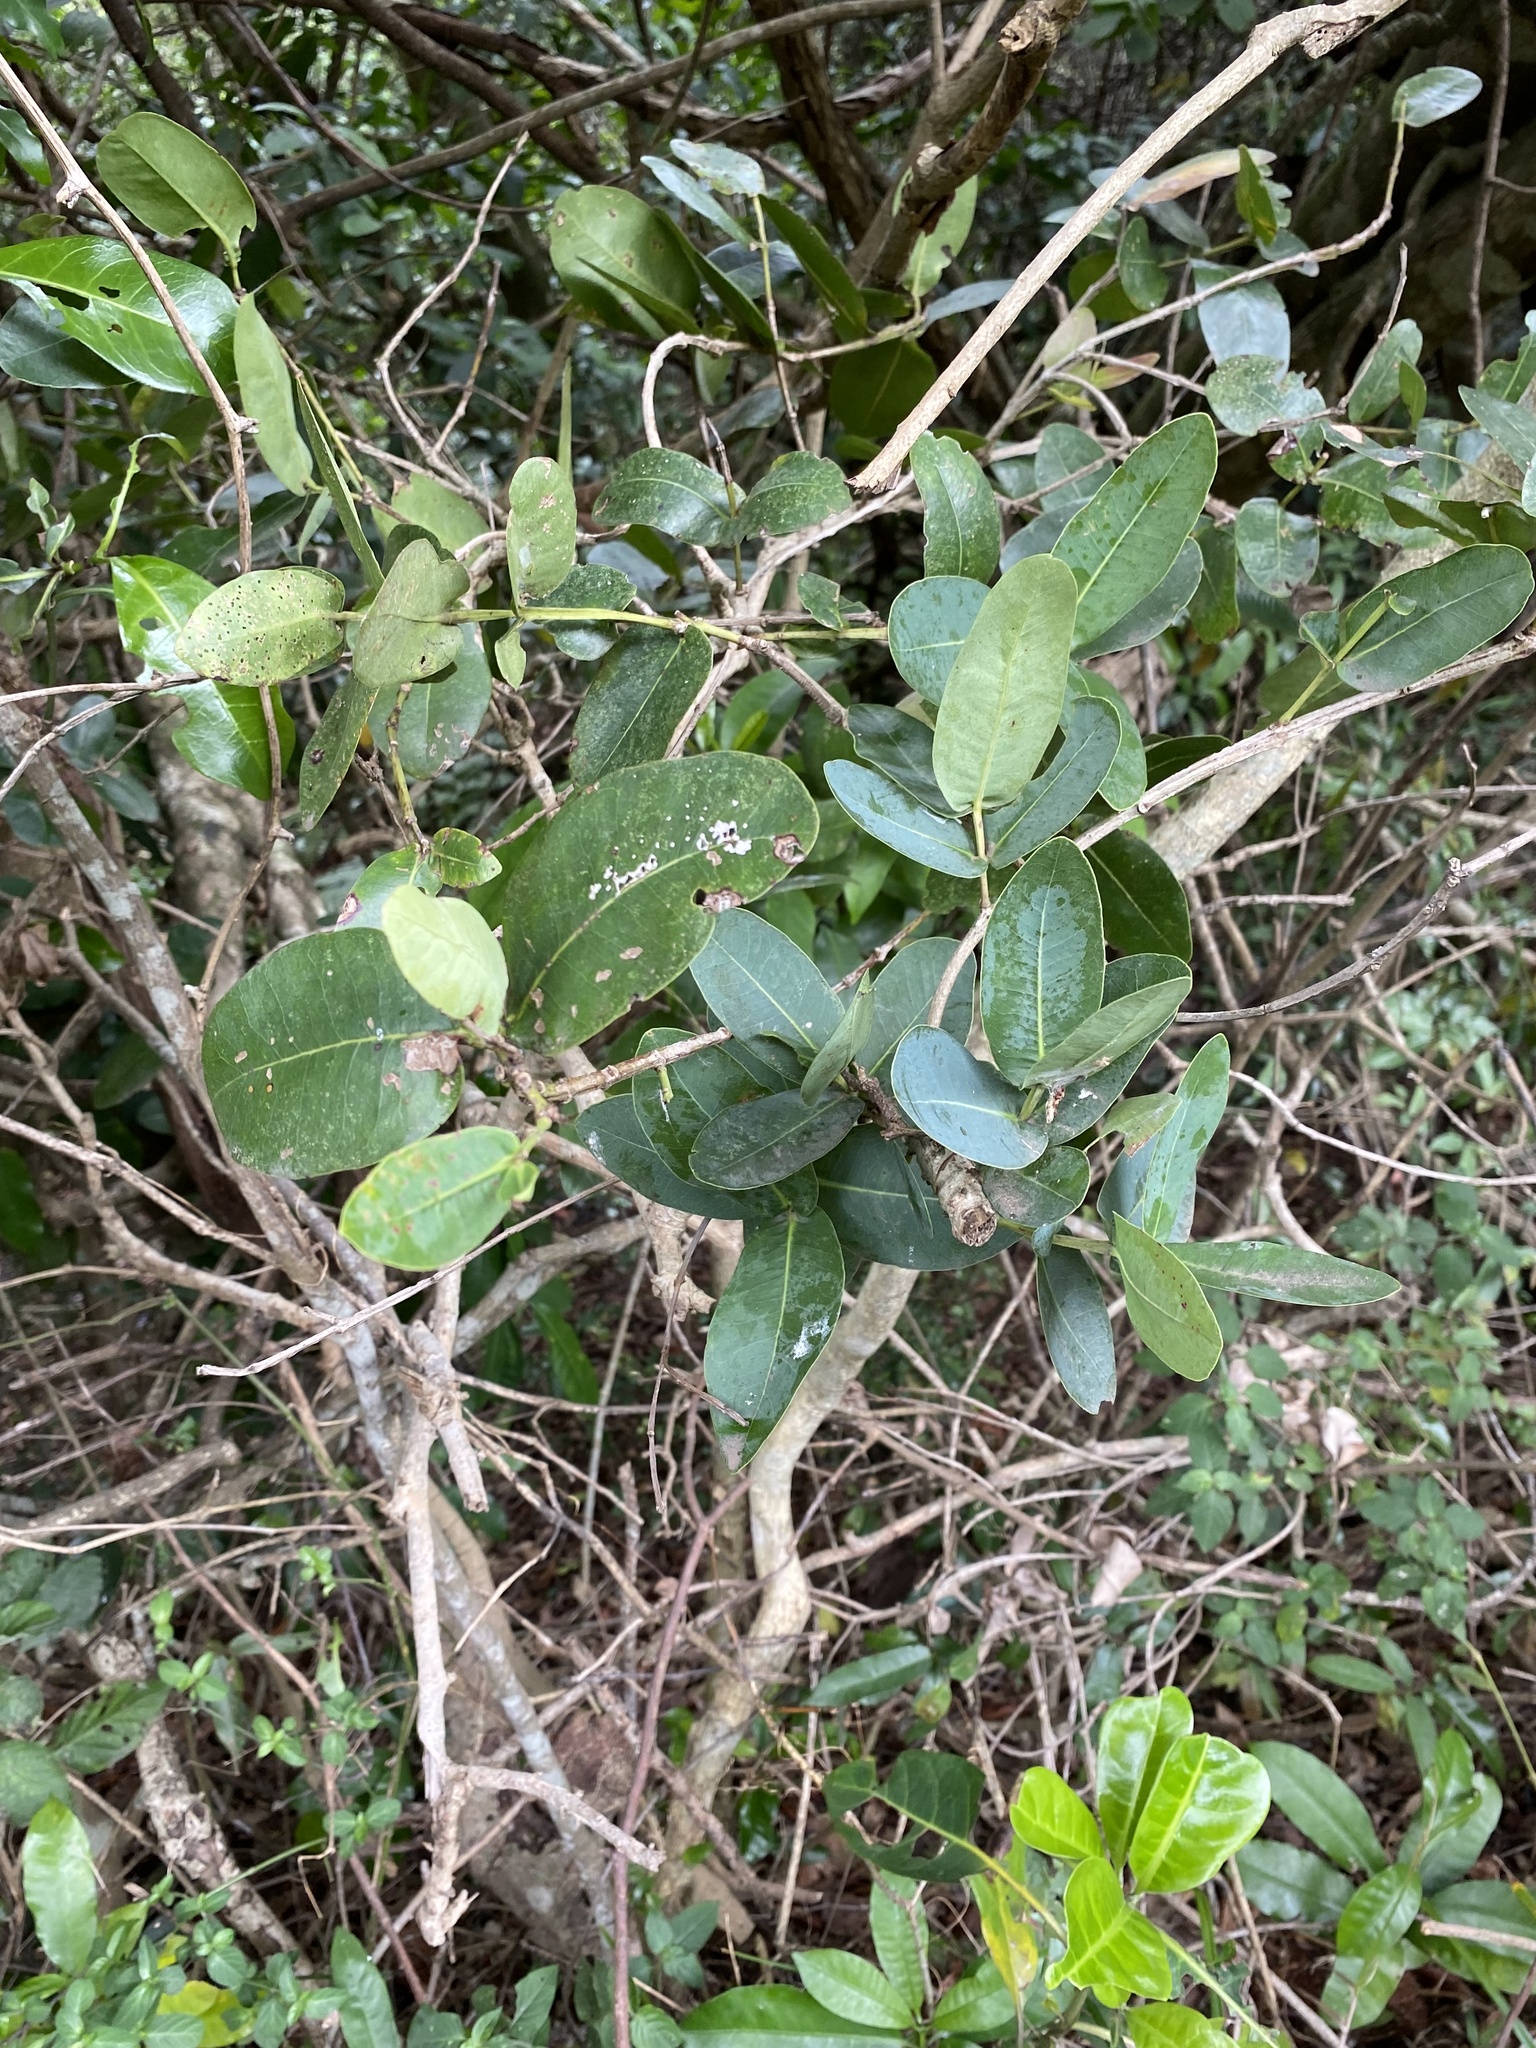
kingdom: Plantae
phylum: Tracheophyta
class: Magnoliopsida
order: Myrtales
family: Myrtaceae
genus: Syzygium
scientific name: Syzygium cordatum
